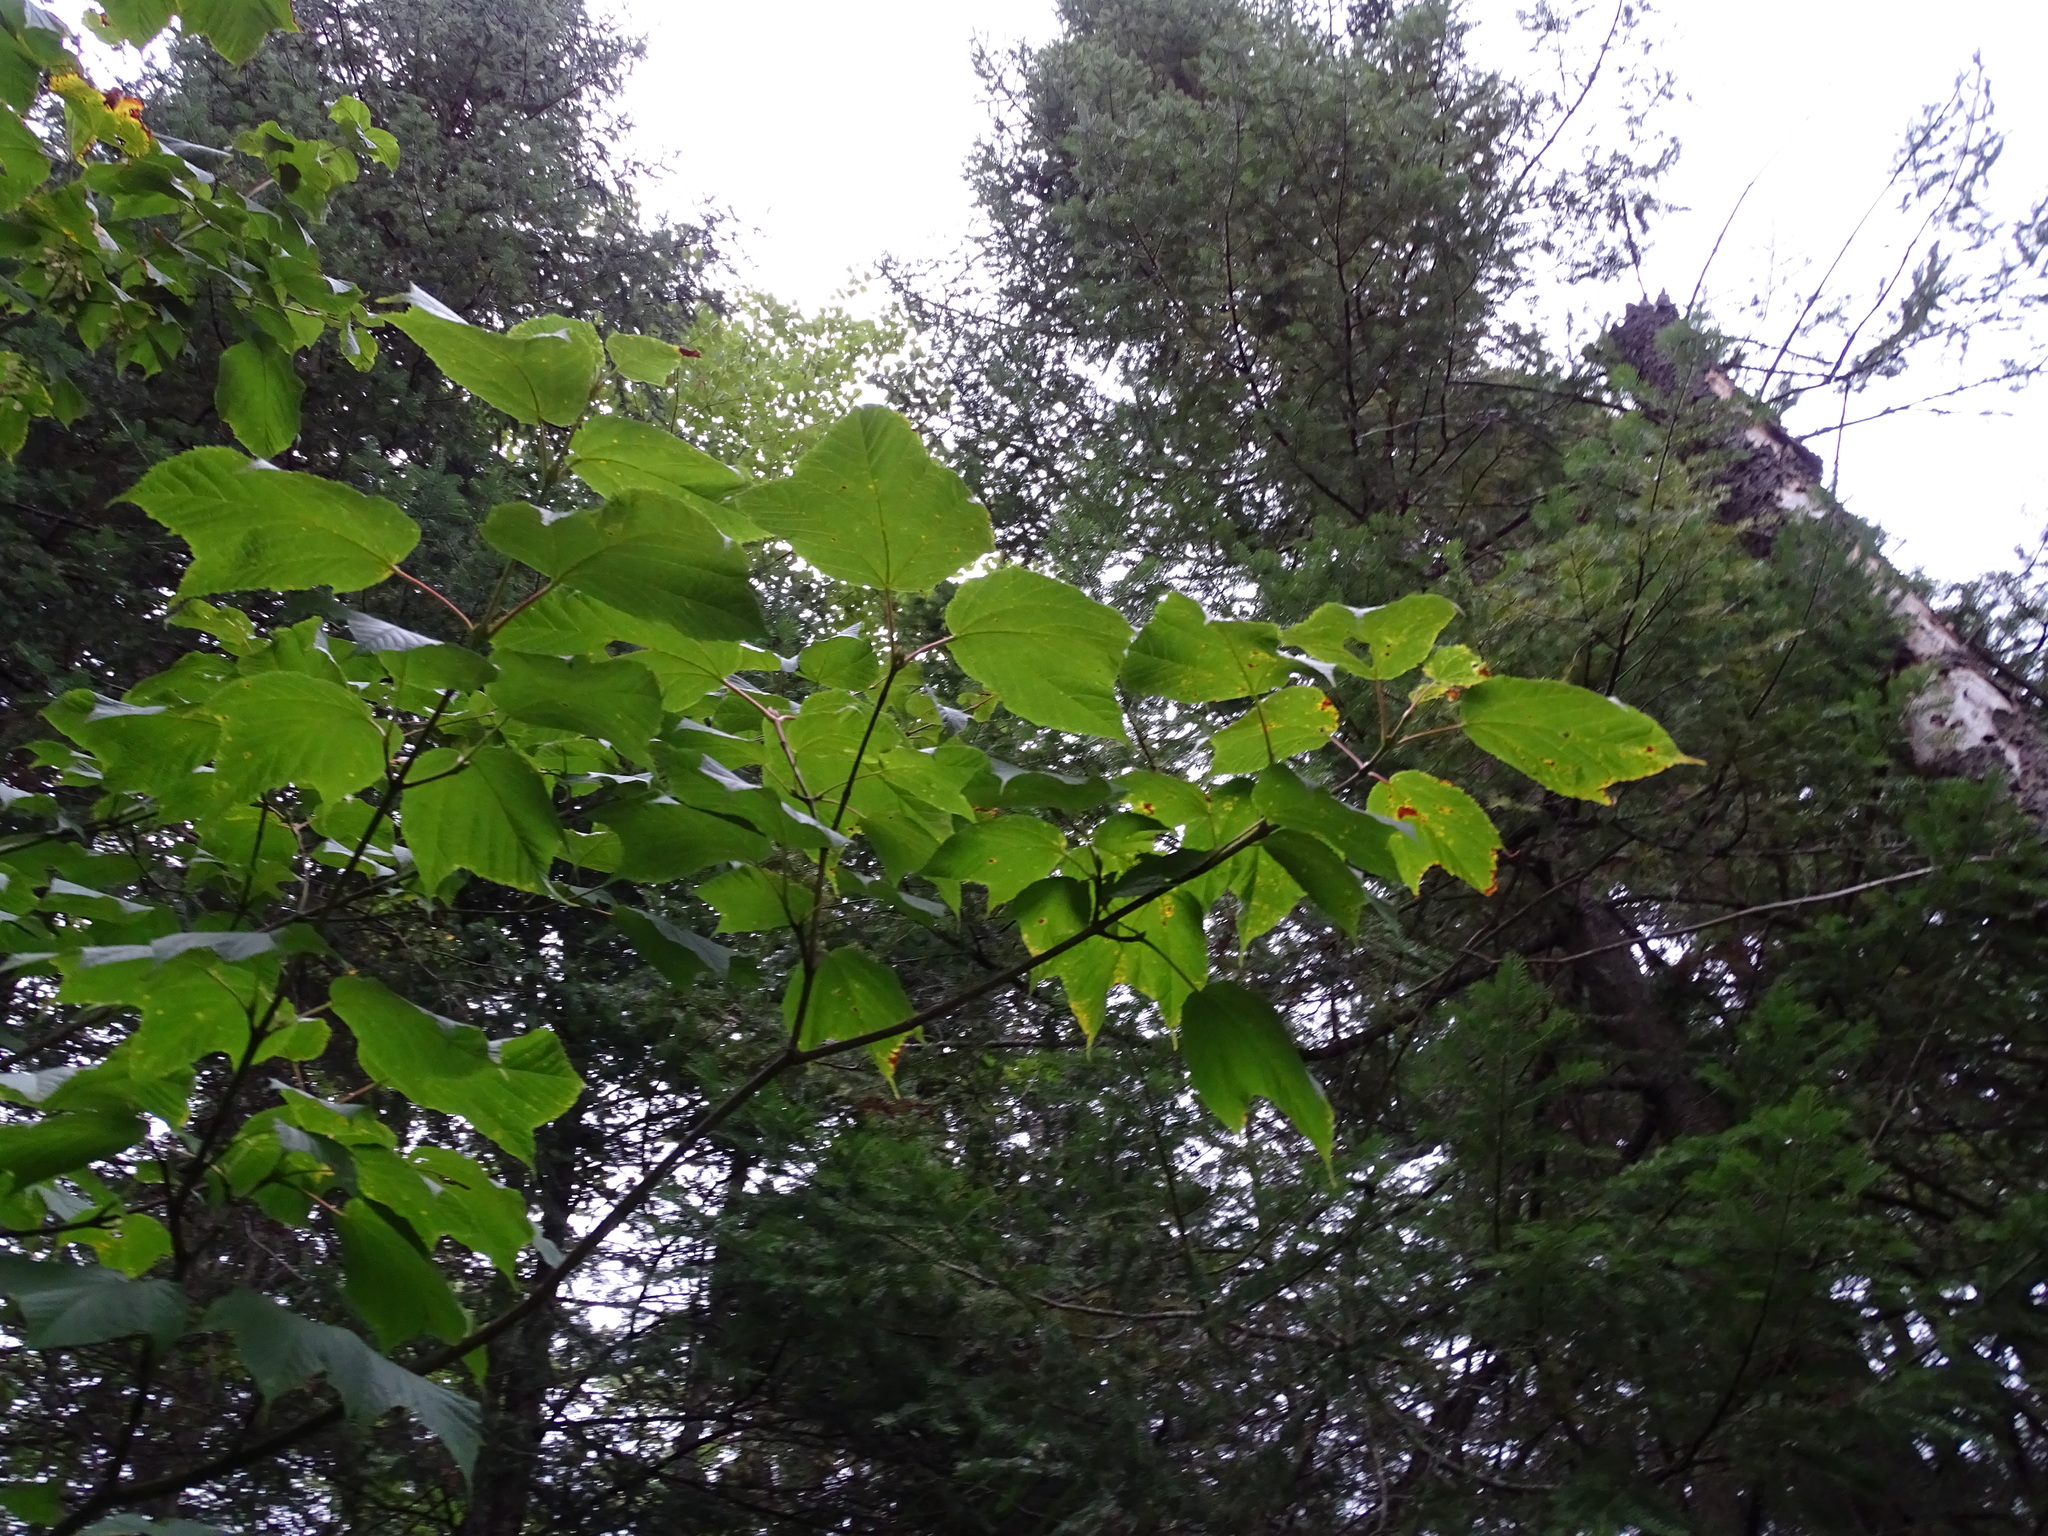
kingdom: Plantae
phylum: Tracheophyta
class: Magnoliopsida
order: Sapindales
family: Sapindaceae
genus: Acer
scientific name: Acer pensylvanicum
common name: Moosewood
